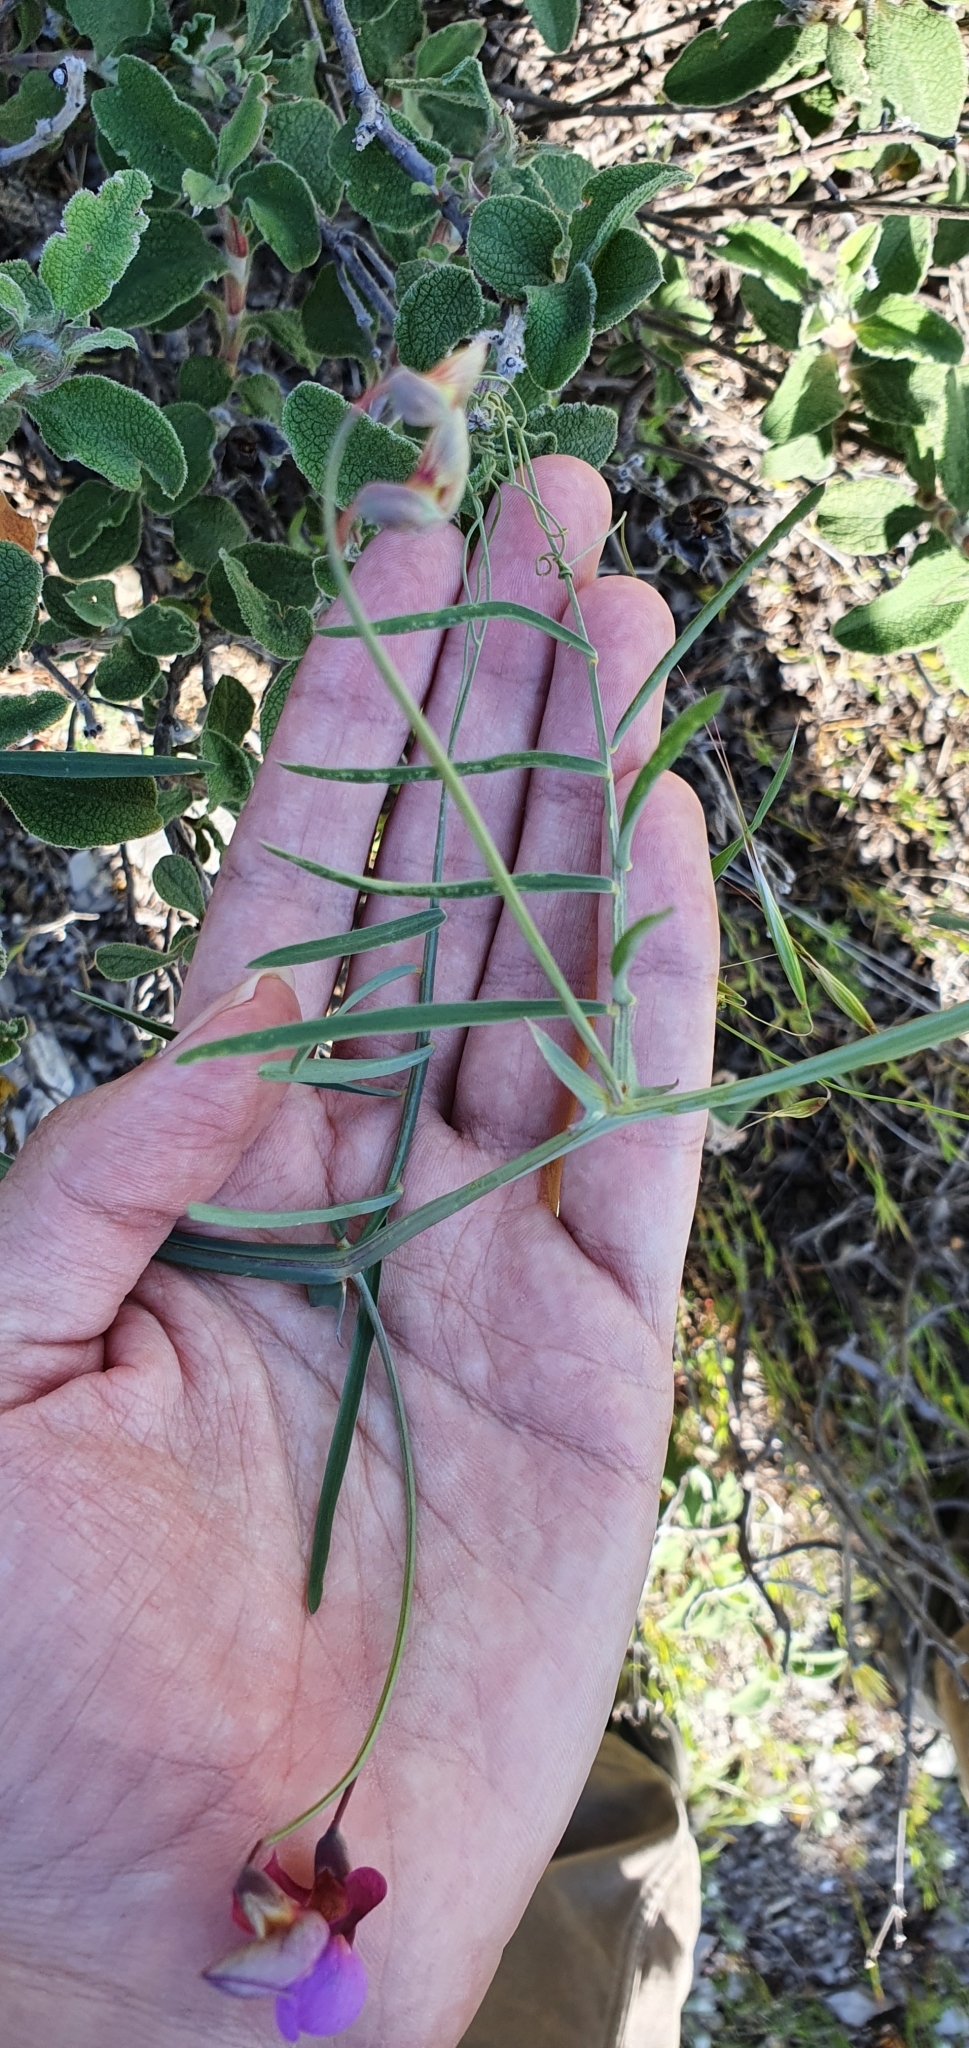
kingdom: Plantae
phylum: Tracheophyta
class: Magnoliopsida
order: Fabales
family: Fabaceae
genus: Lathyrus
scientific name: Lathyrus clymenum
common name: Spanish vetchling
